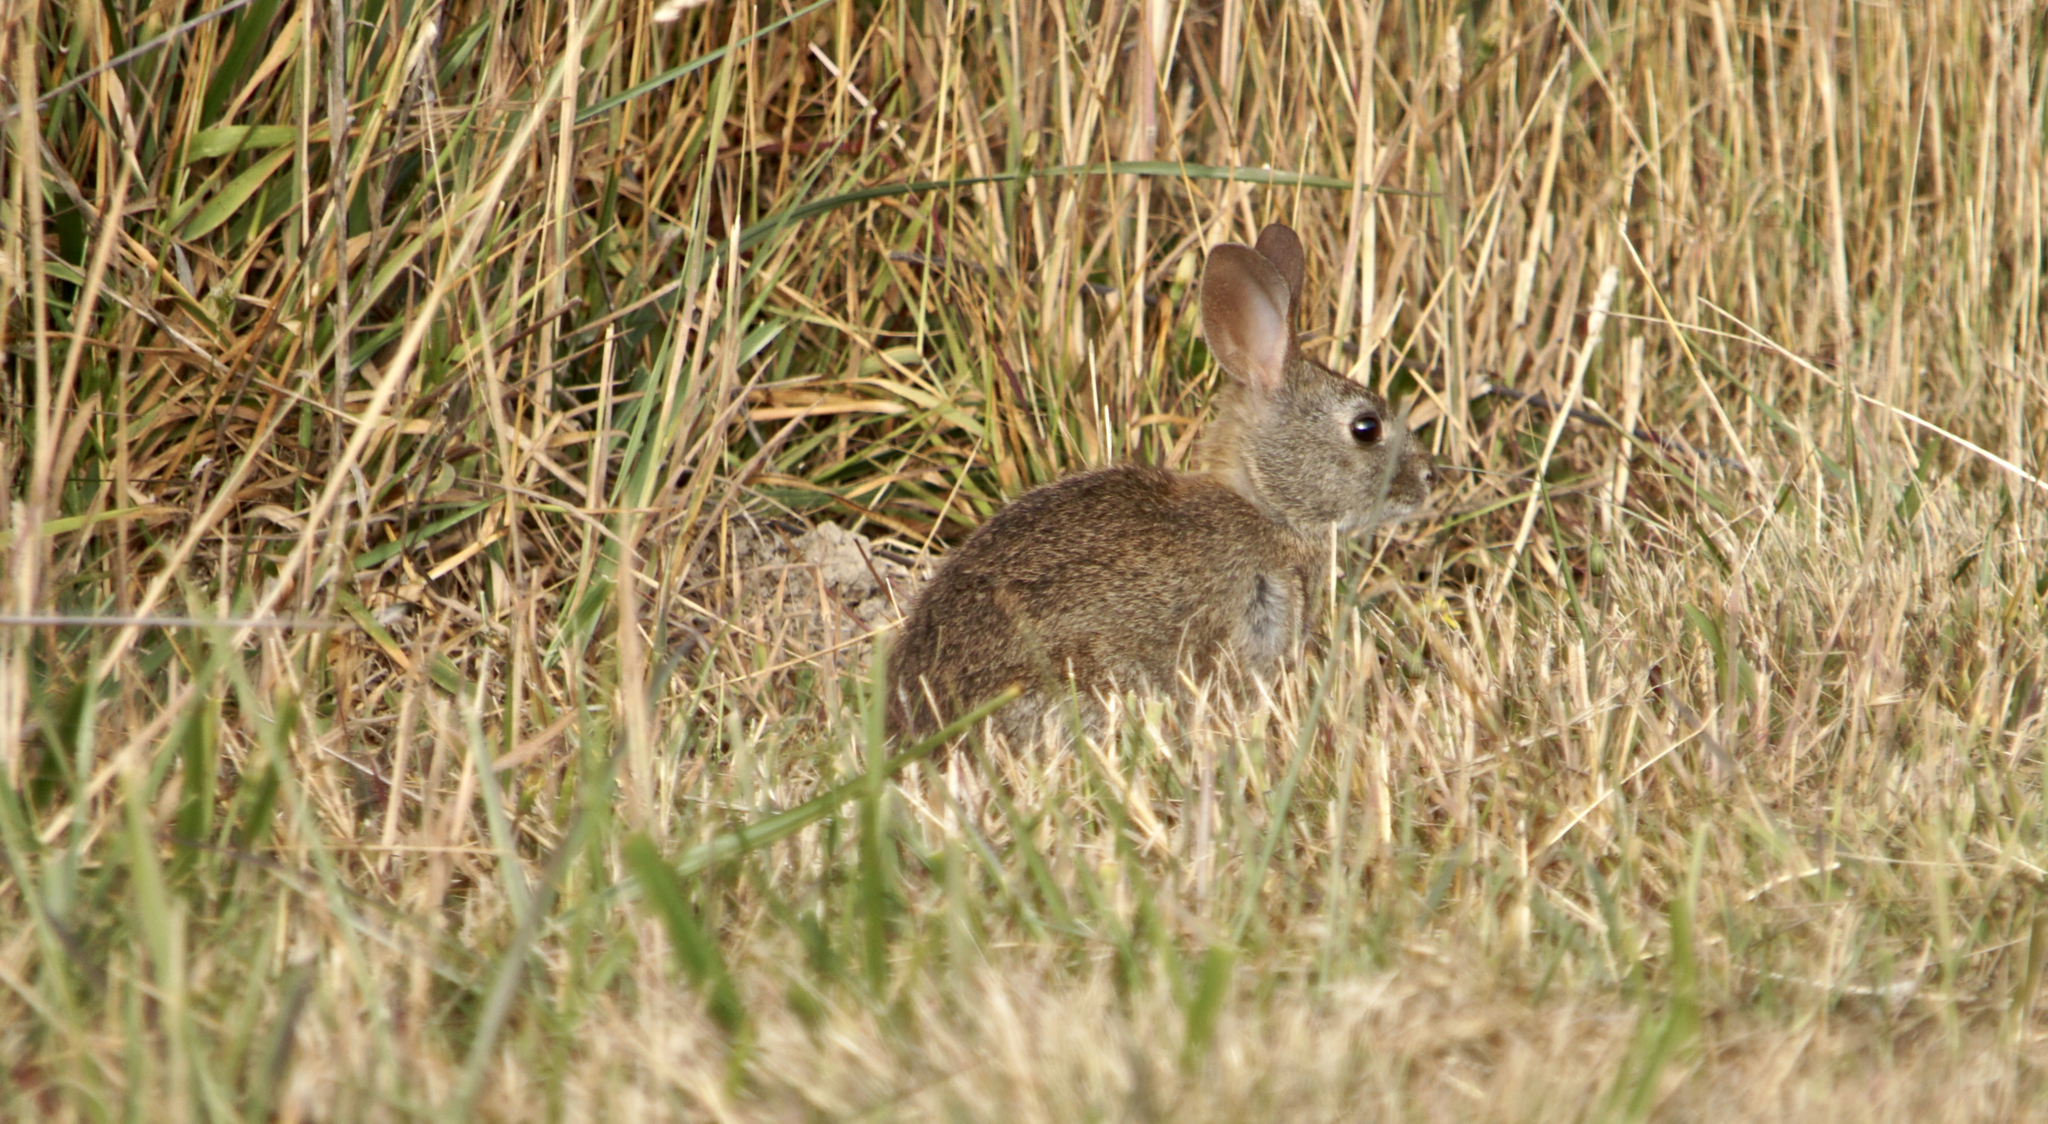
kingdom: Animalia
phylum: Chordata
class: Mammalia
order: Lagomorpha
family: Leporidae
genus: Sylvilagus
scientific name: Sylvilagus bachmani
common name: Brush rabbit
